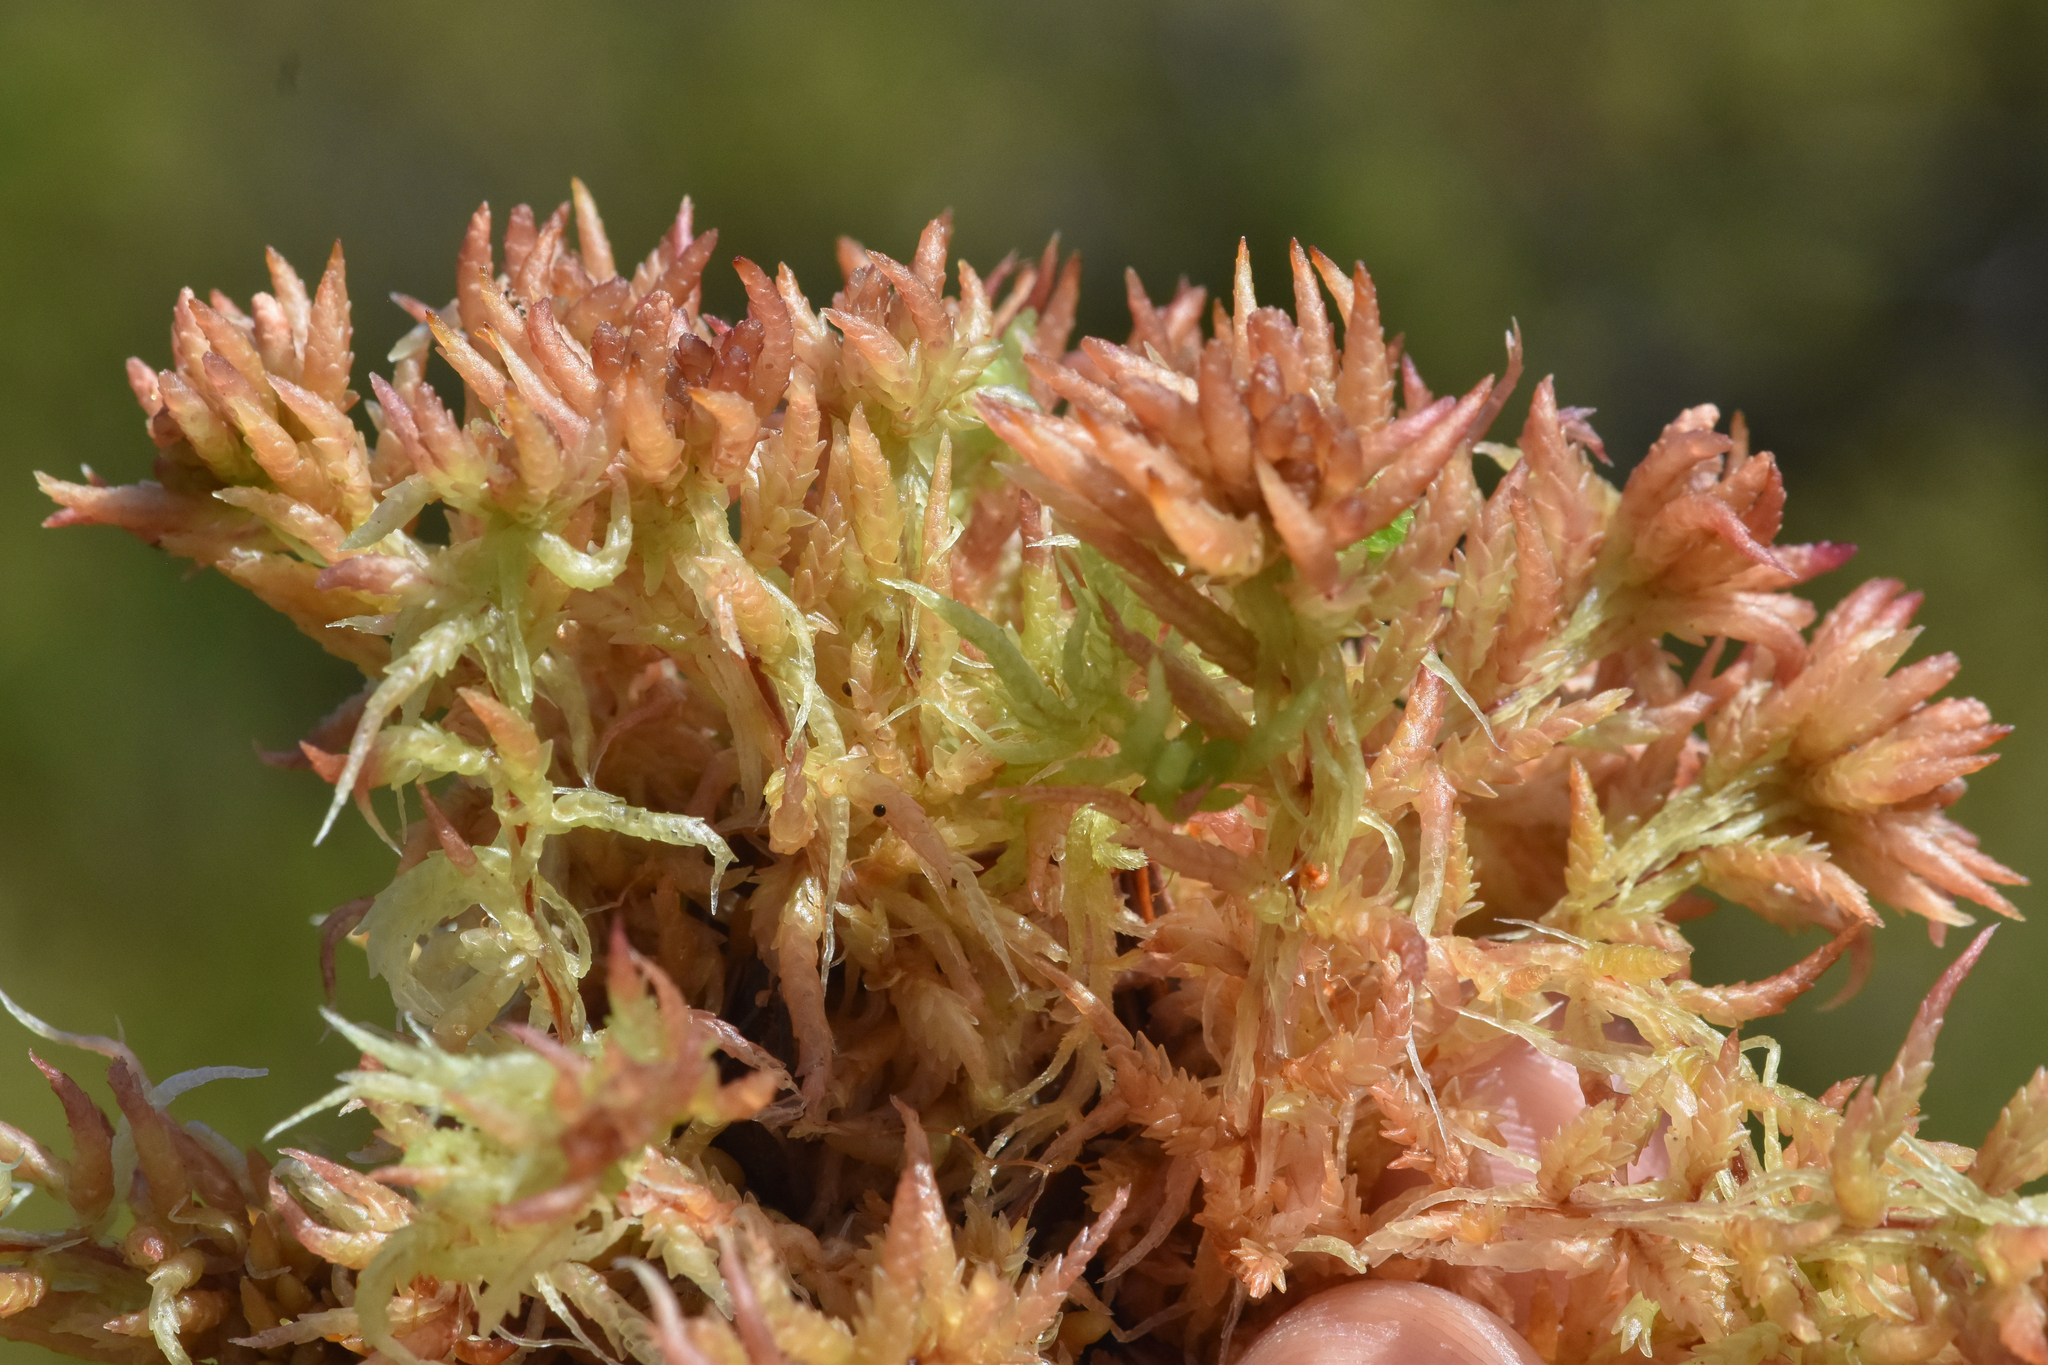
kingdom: Plantae
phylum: Bryophyta
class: Sphagnopsida
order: Sphagnales
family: Sphagnaceae
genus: Sphagnum
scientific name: Sphagnum divinum
